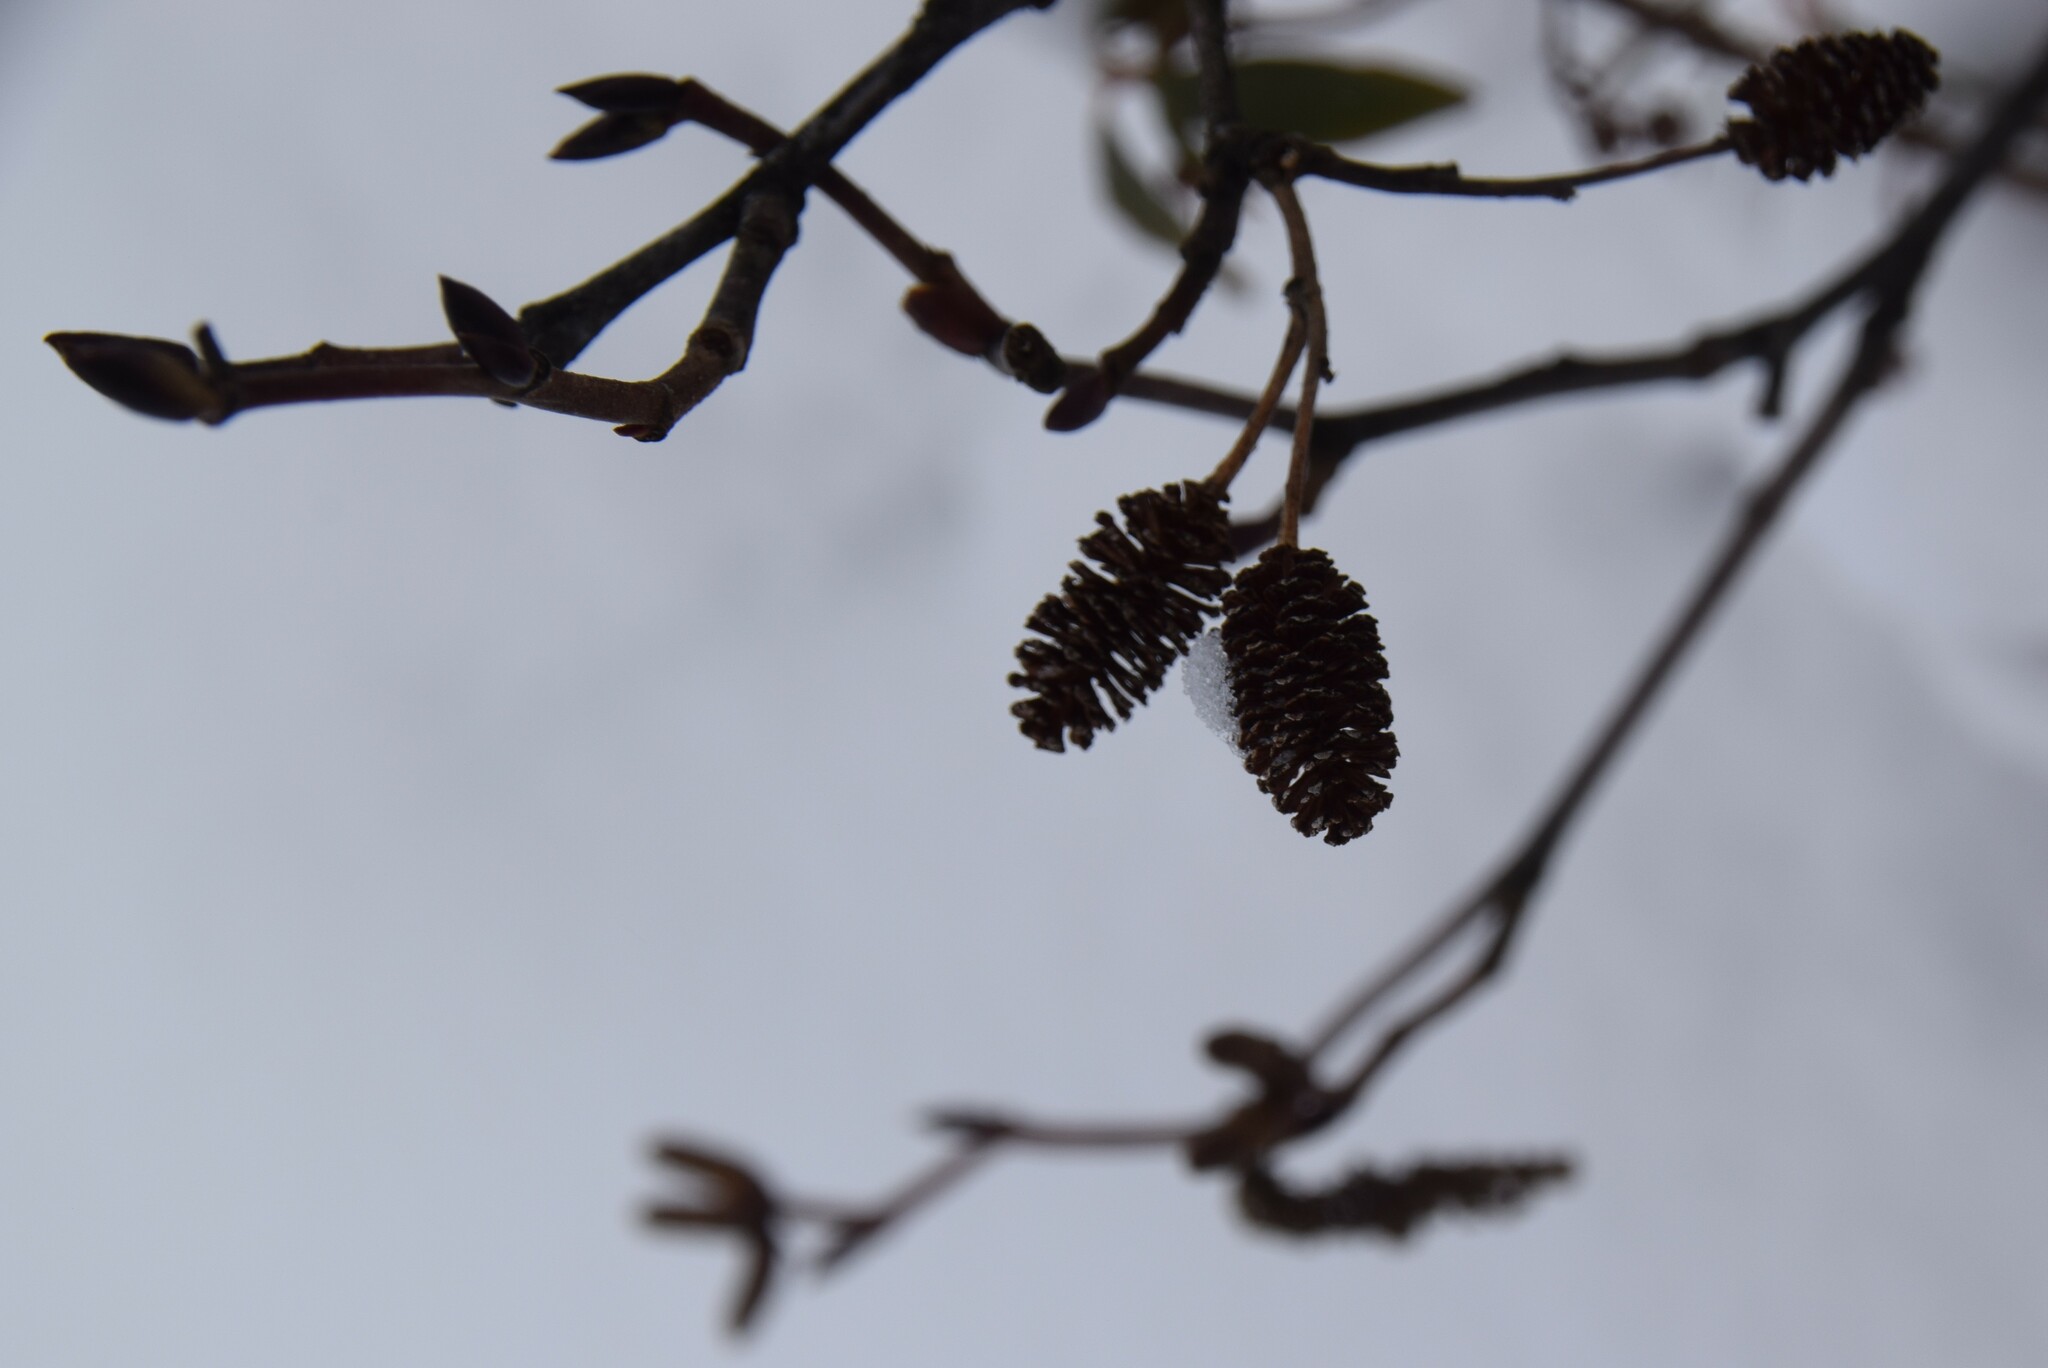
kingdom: Plantae
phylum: Tracheophyta
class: Magnoliopsida
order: Fagales
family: Betulaceae
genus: Alnus
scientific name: Alnus alnobetula
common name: Green alder
